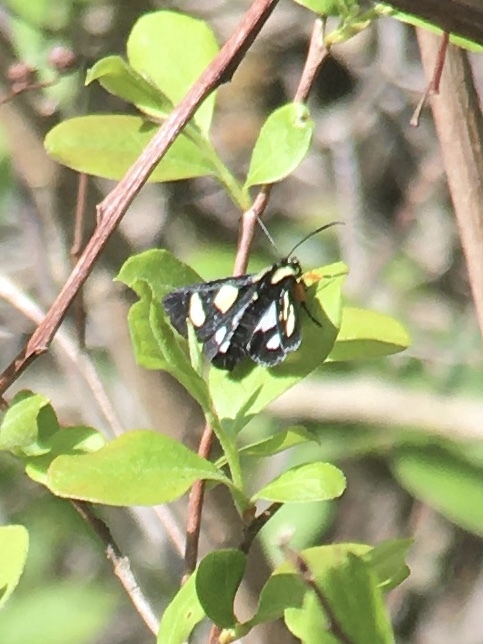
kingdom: Animalia
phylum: Arthropoda
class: Insecta
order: Lepidoptera
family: Noctuidae
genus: Alypia
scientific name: Alypia octomaculata
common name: Eight-spotted forester
